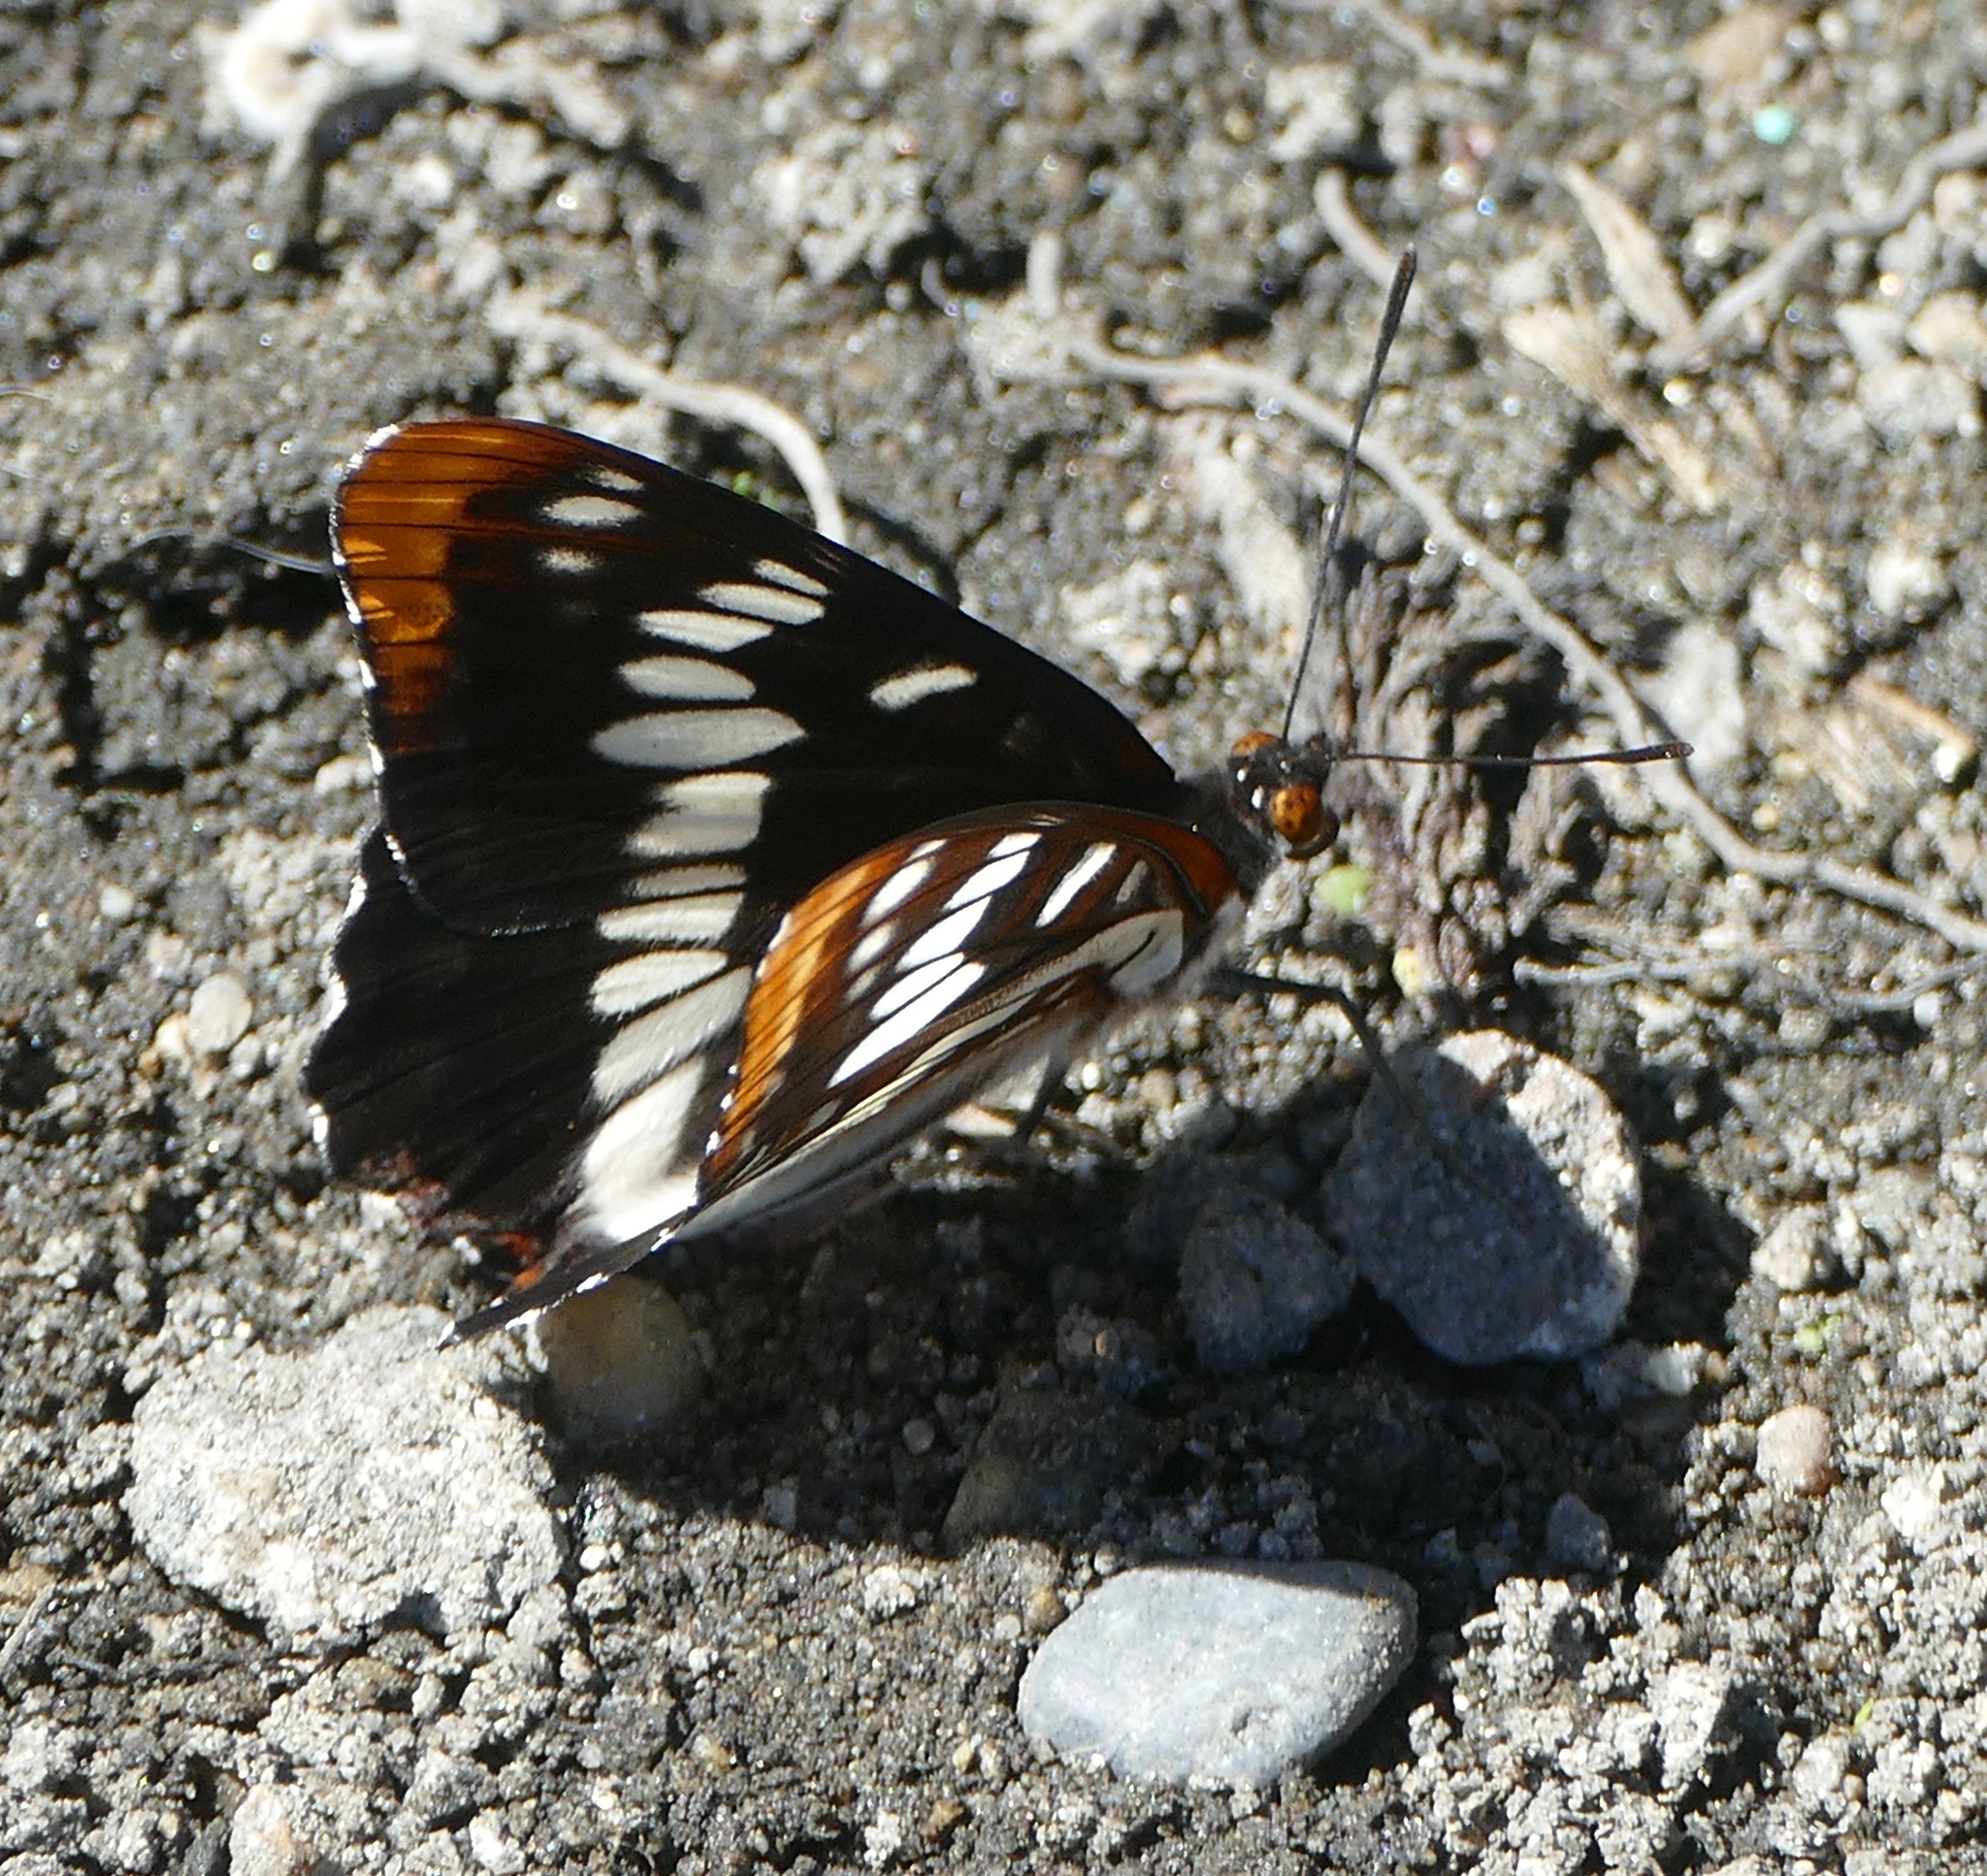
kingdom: Animalia
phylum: Arthropoda
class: Insecta
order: Lepidoptera
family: Nymphalidae
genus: Limenitis
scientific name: Limenitis lorquini
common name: Lorquin's admiral
